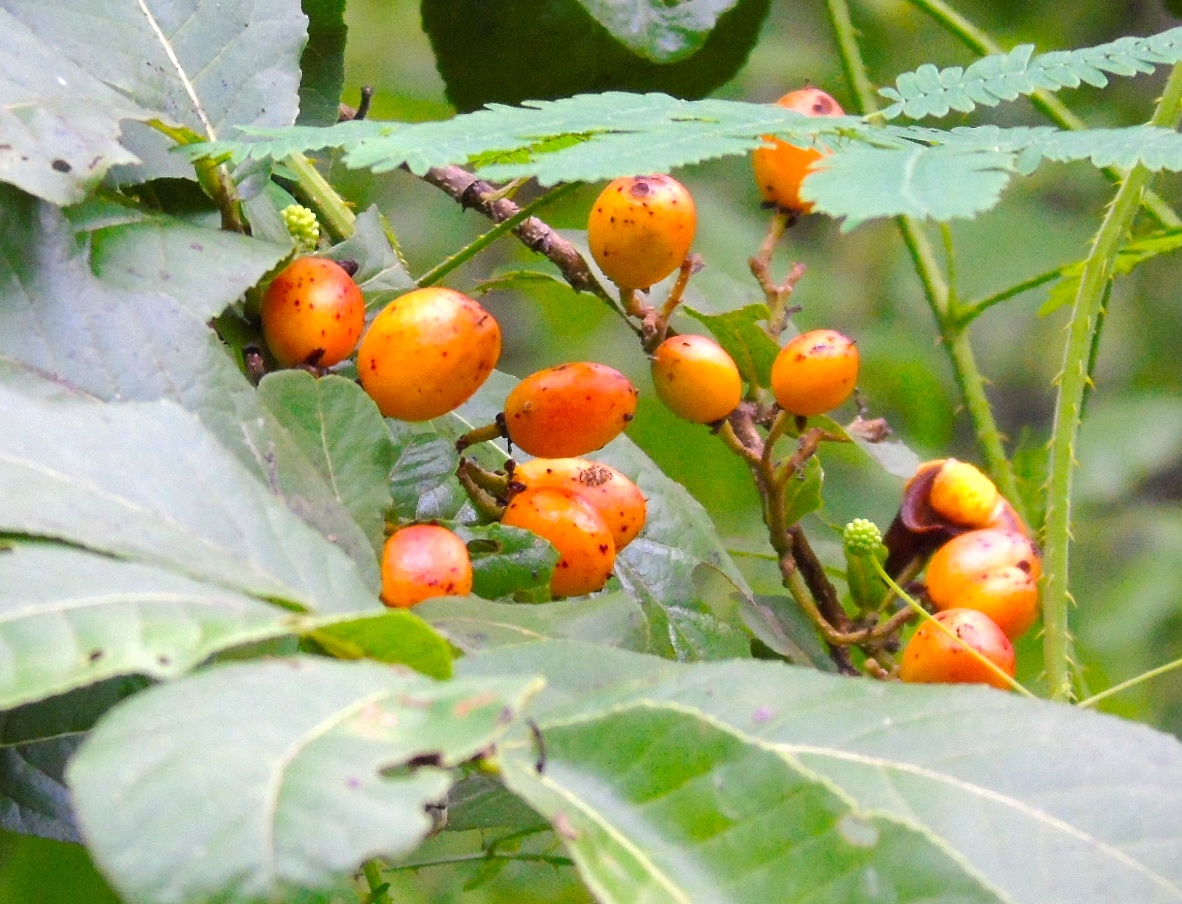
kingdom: Plantae
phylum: Tracheophyta
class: Magnoliopsida
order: Malpighiales
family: Salicaceae
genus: Casearia
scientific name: Casearia corymbosa
